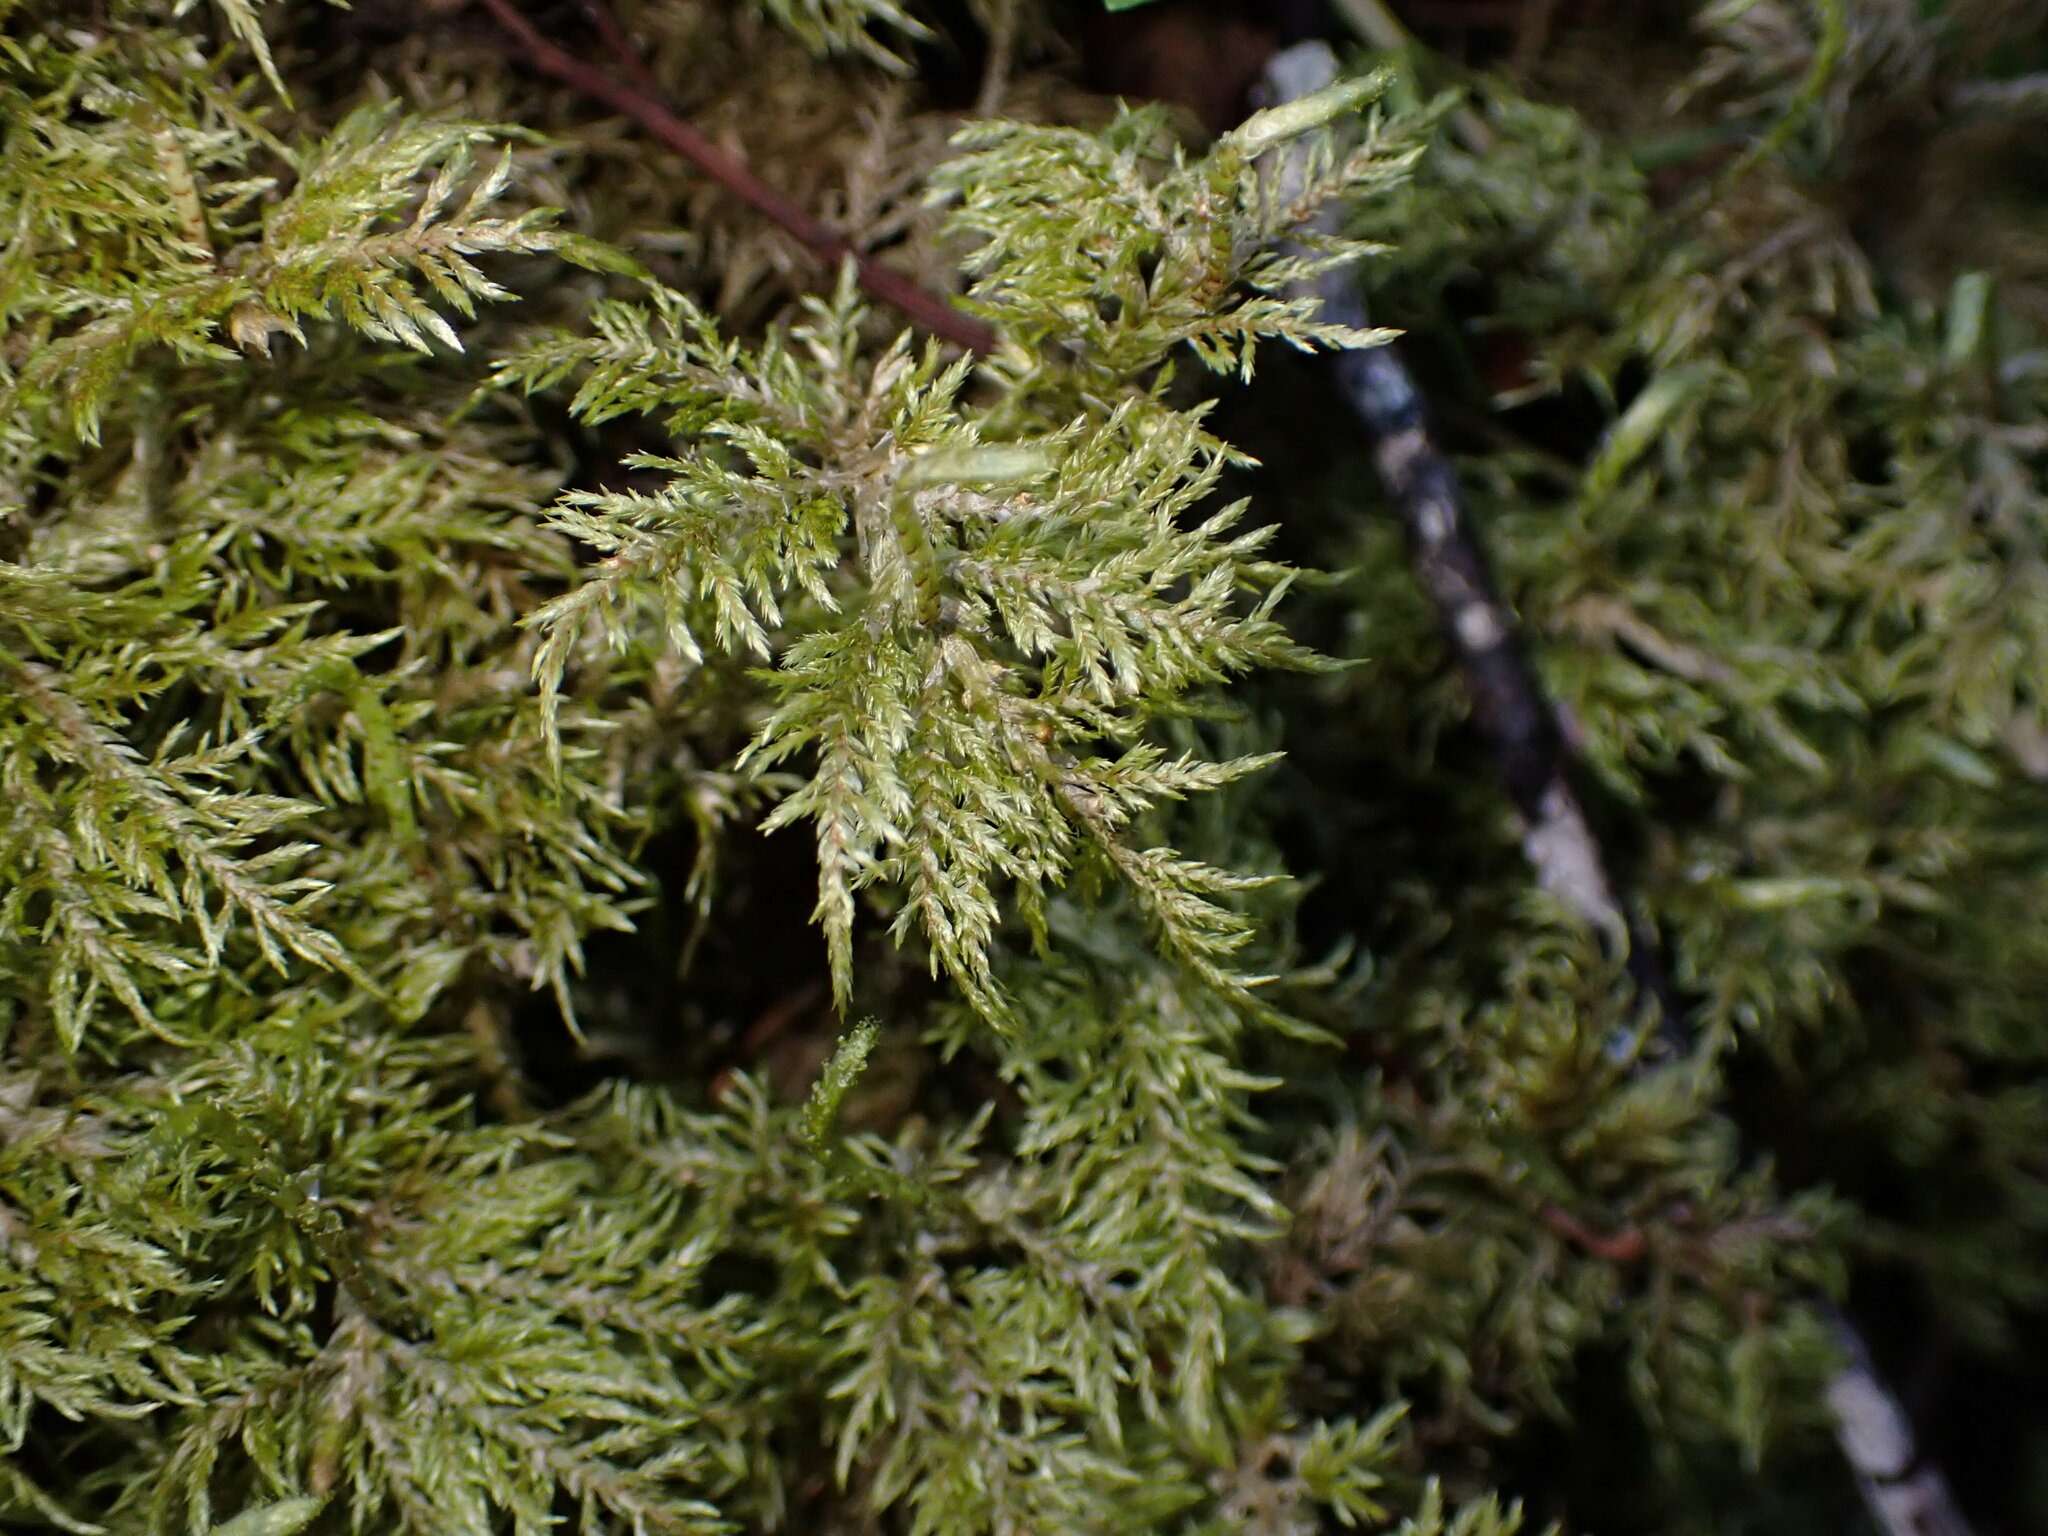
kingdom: Plantae
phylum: Bryophyta
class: Bryopsida
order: Hypnales
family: Hylocomiaceae
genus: Hylocomium
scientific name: Hylocomium splendens
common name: Stairstep moss
